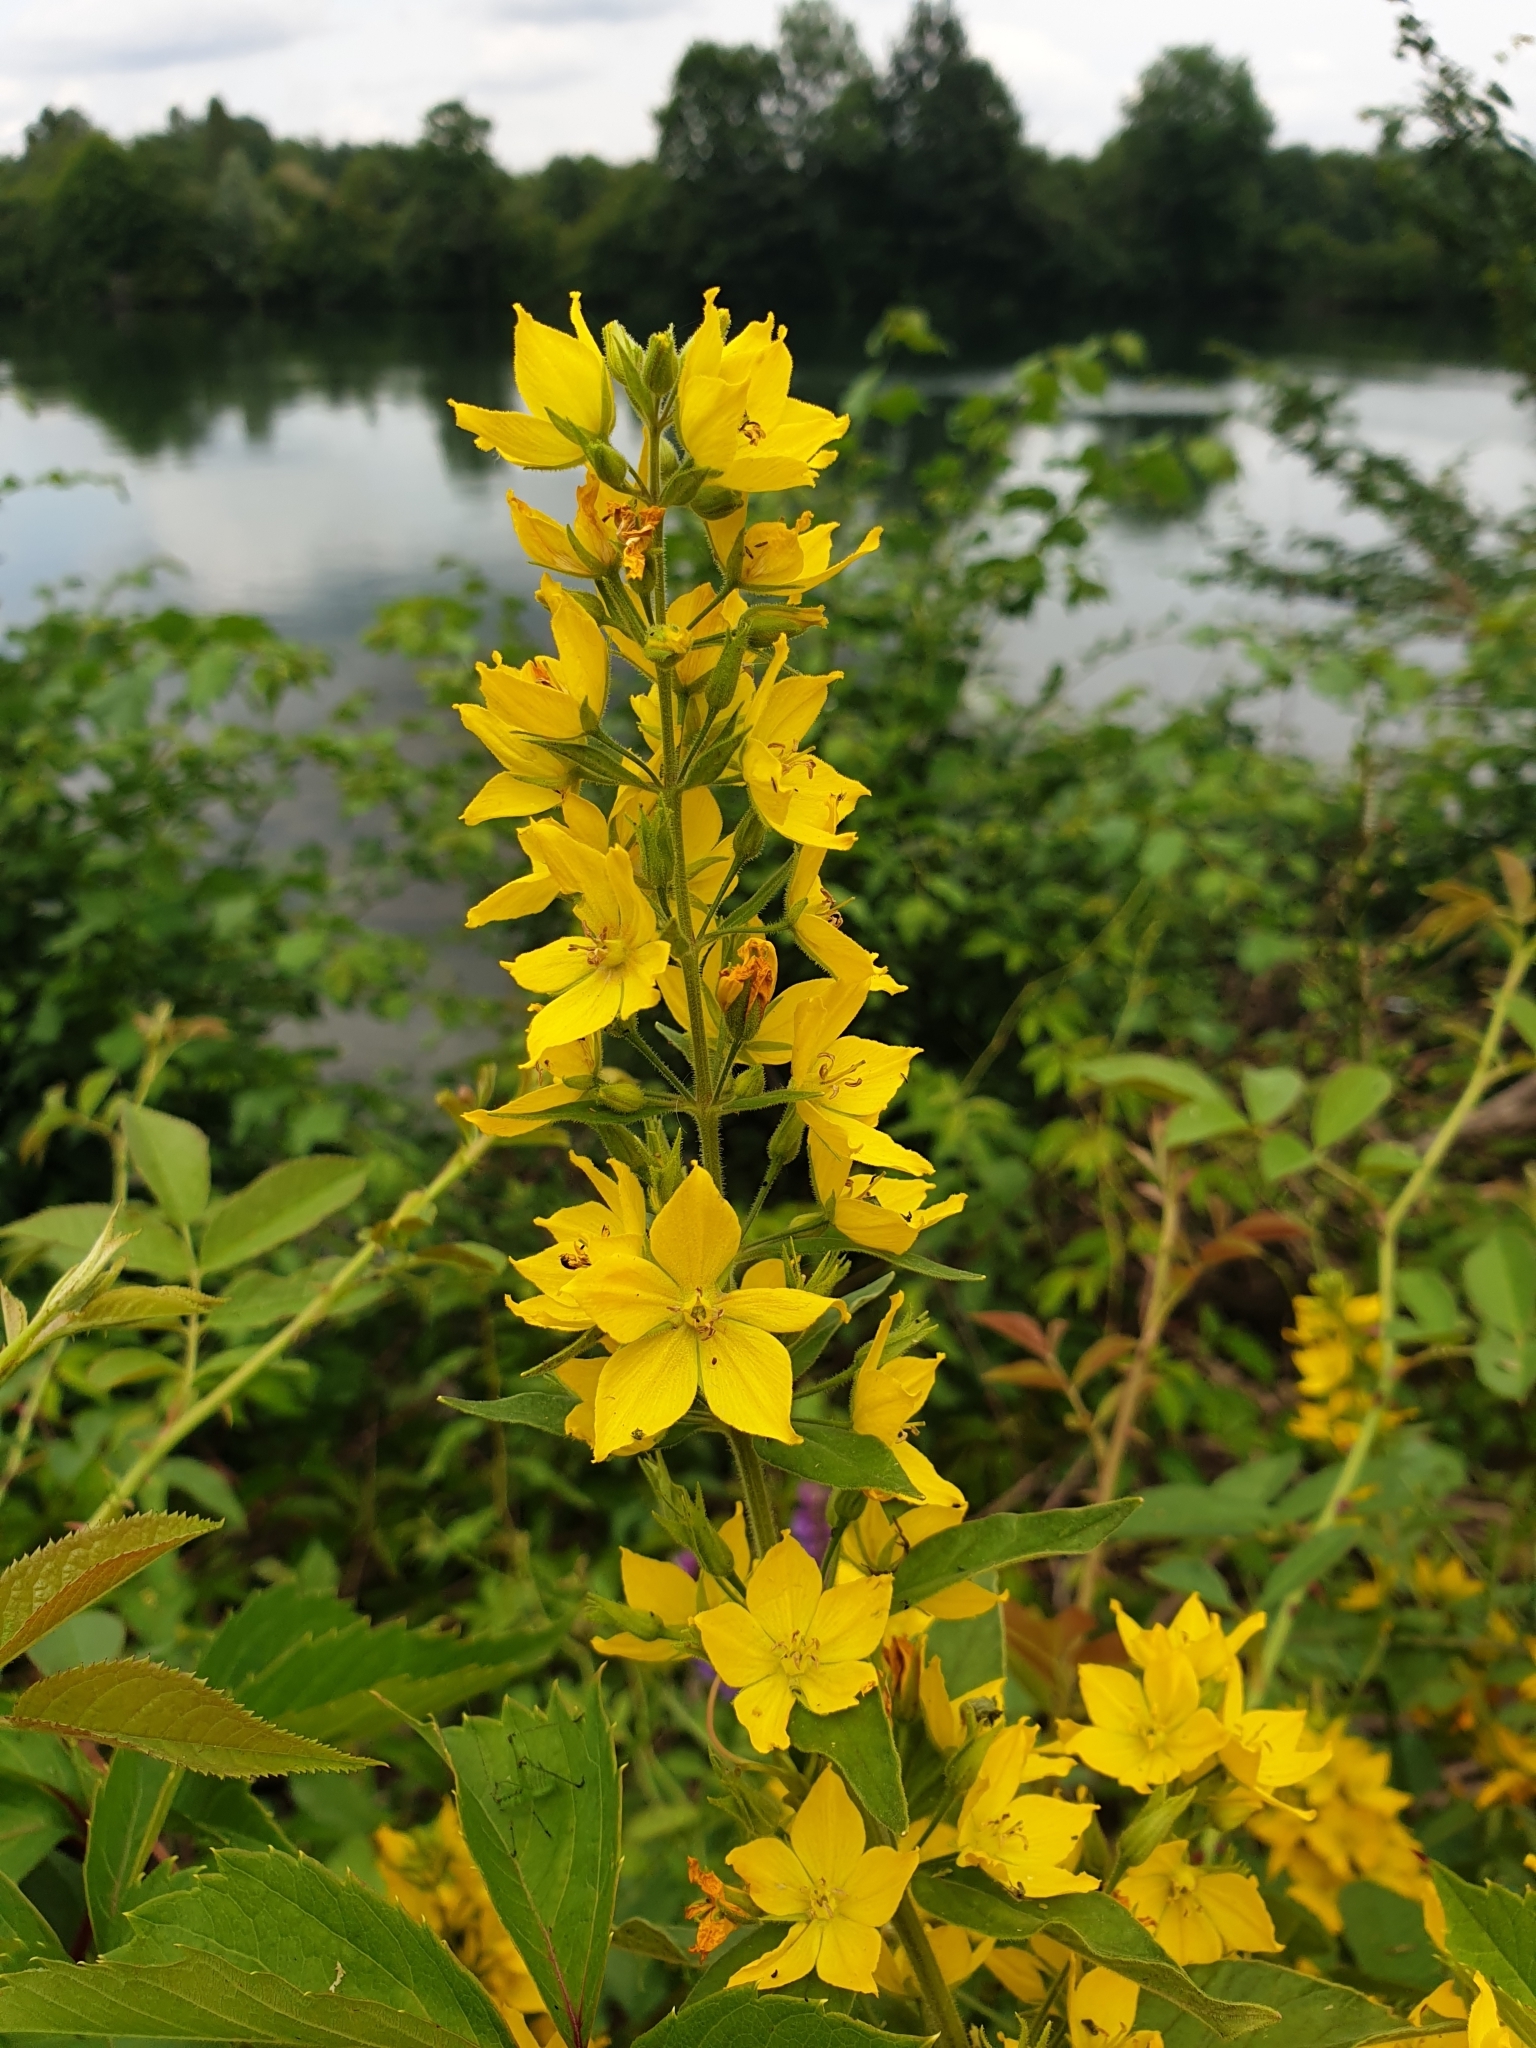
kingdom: Plantae
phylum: Tracheophyta
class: Magnoliopsida
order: Ericales
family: Primulaceae
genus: Lysimachia
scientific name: Lysimachia punctata
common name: Dotted loosestrife
